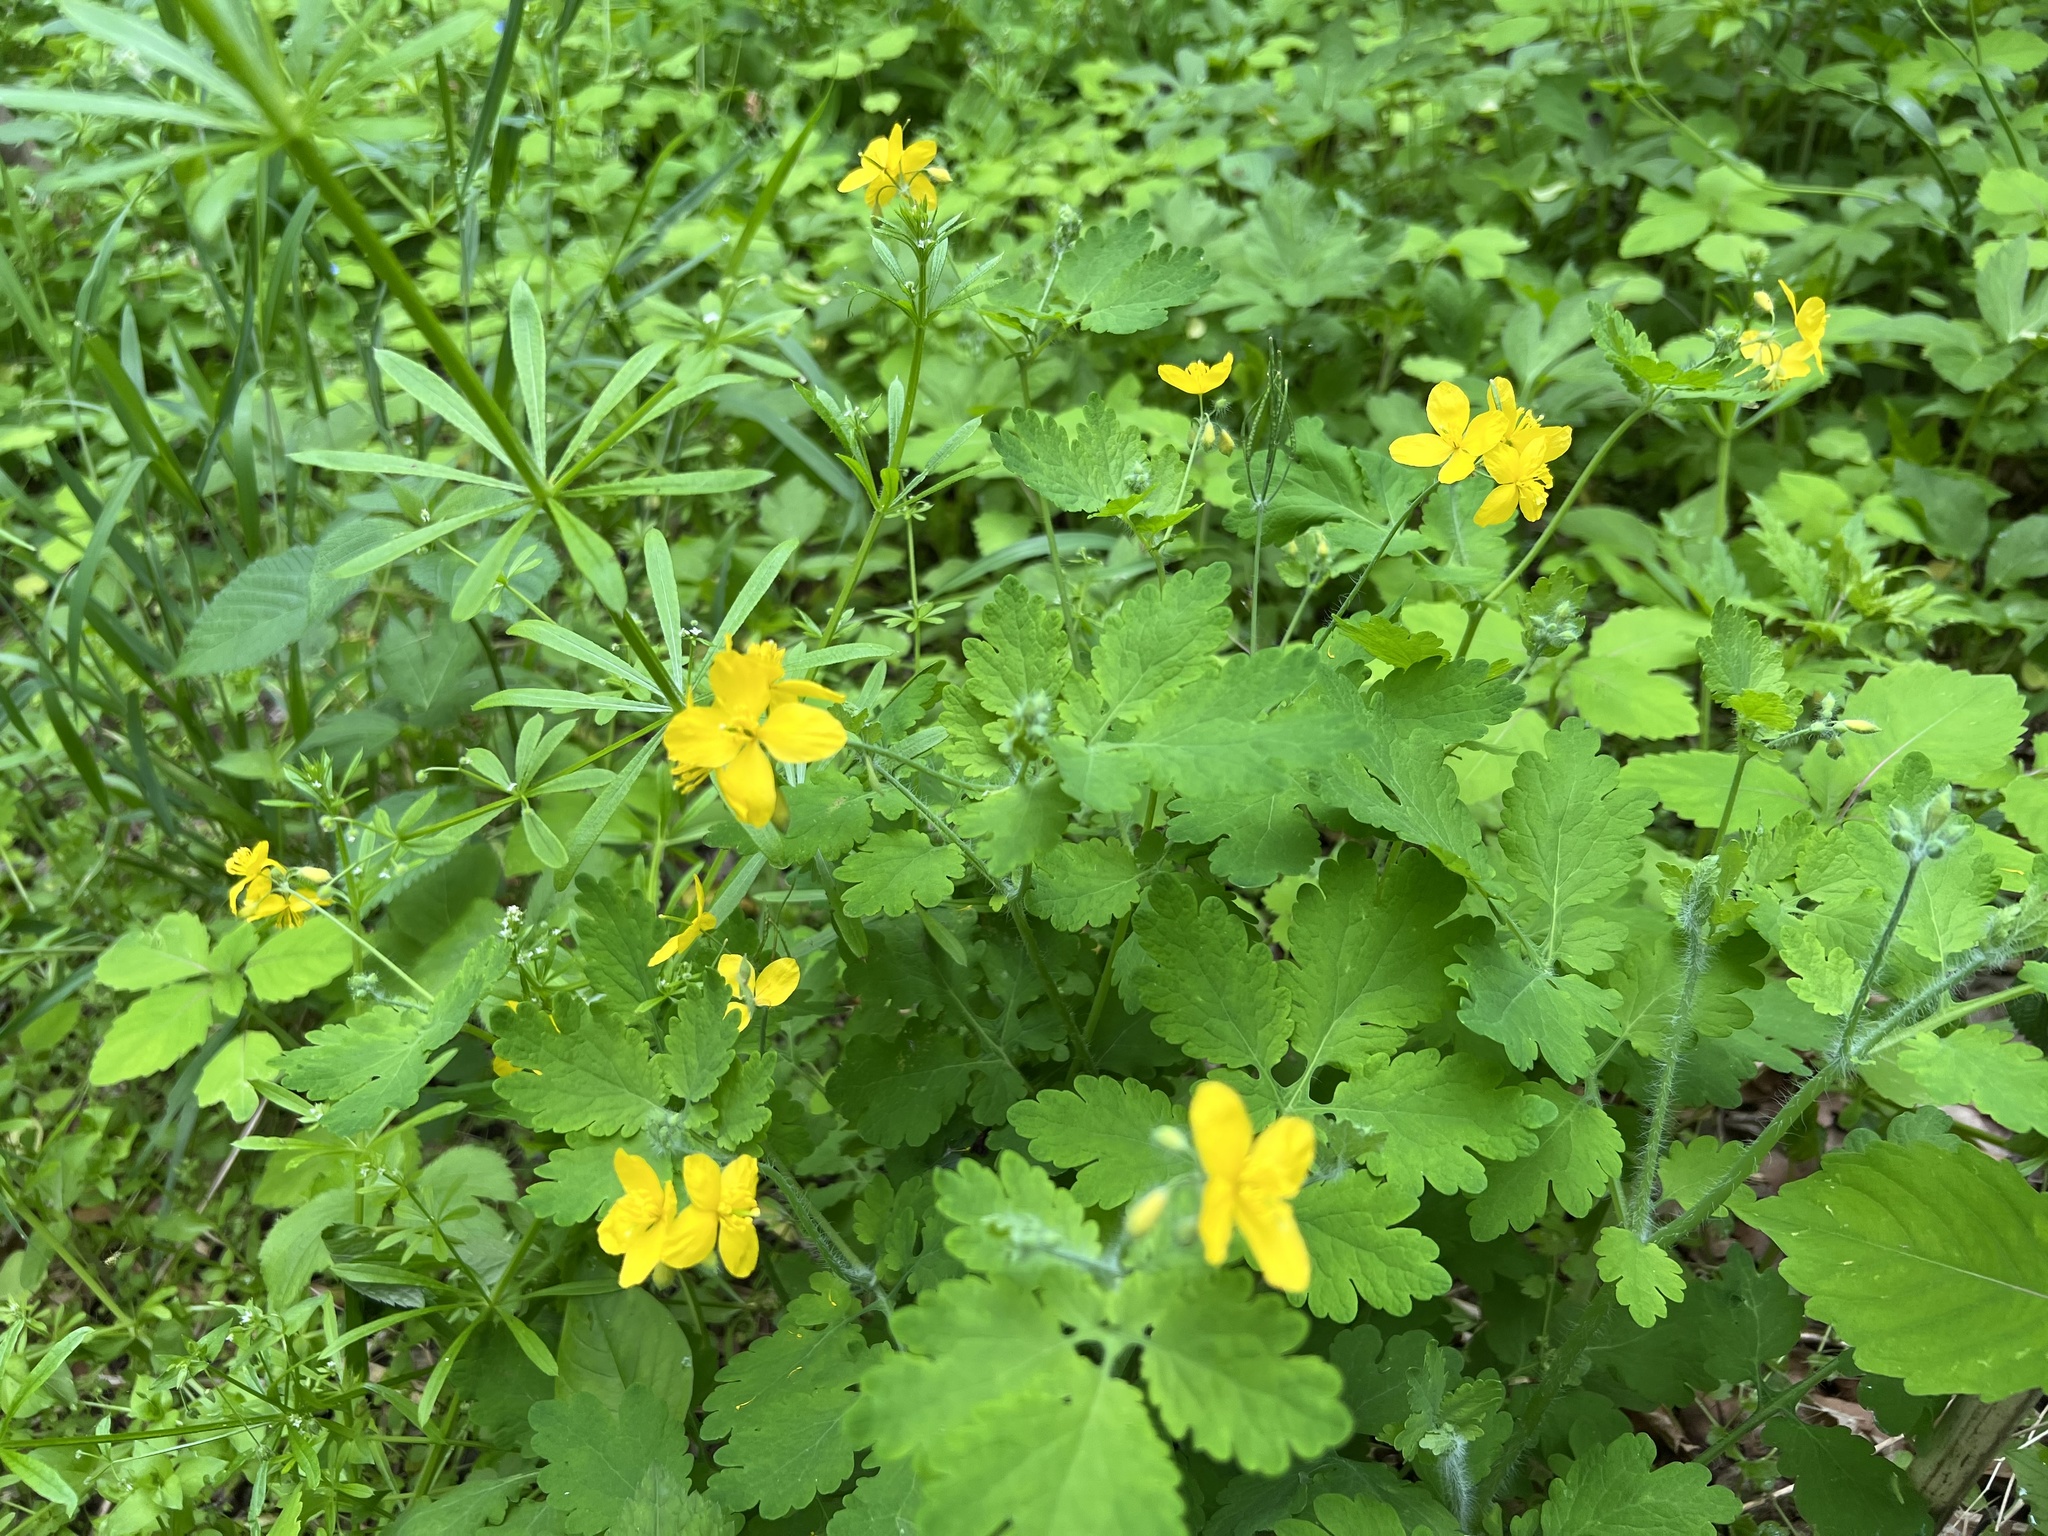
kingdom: Plantae
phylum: Tracheophyta
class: Magnoliopsida
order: Ranunculales
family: Papaveraceae
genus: Chelidonium
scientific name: Chelidonium majus
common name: Greater celandine
